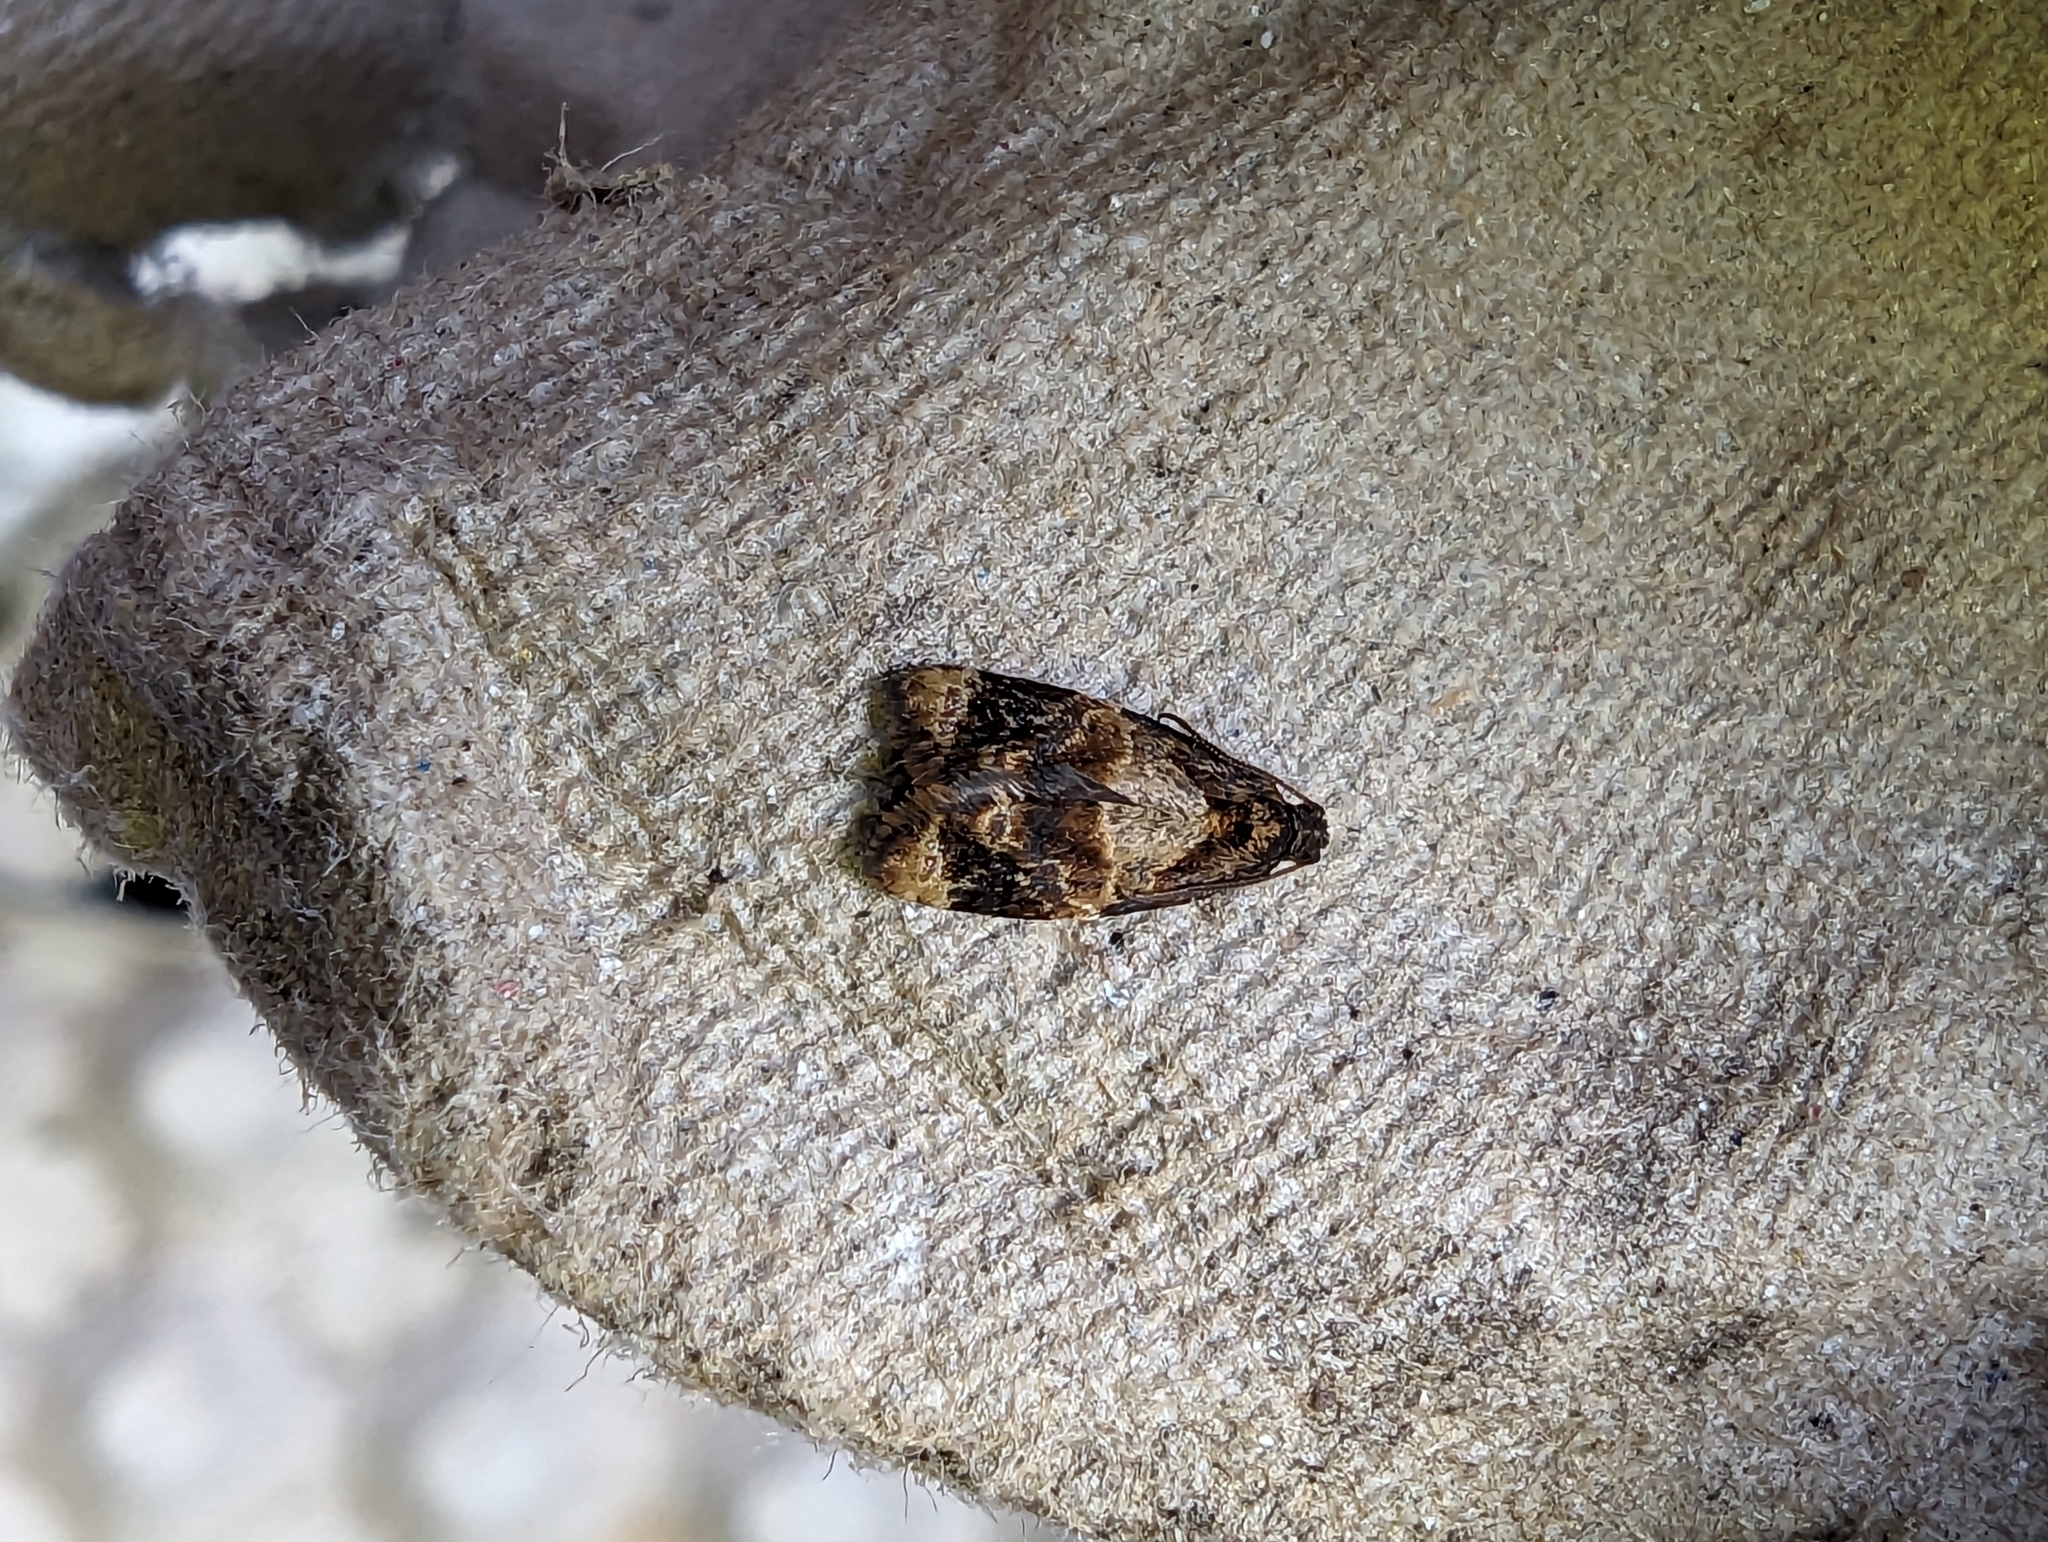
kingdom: Animalia
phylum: Arthropoda
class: Insecta
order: Lepidoptera
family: Tortricidae
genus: Ditula
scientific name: Ditula angustiorana
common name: Red-barred tortrix
